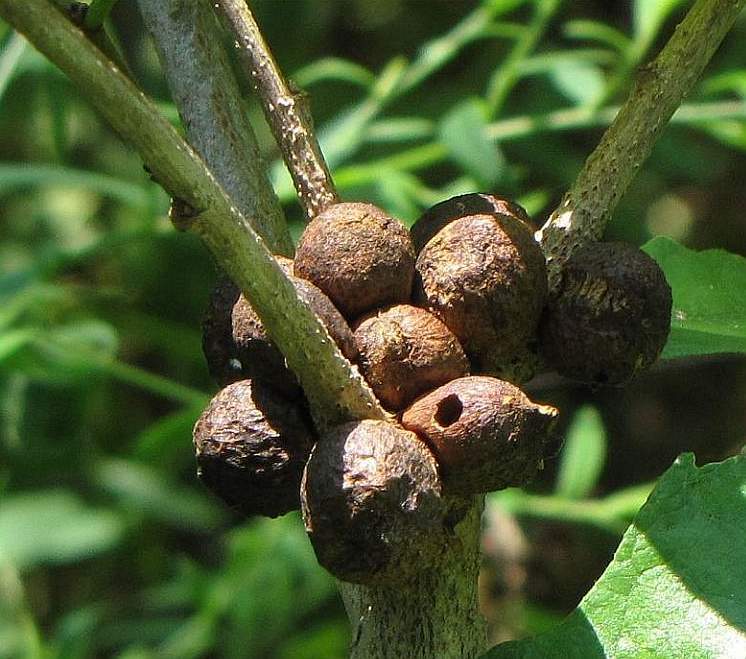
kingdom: Animalia
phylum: Arthropoda
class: Insecta
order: Hymenoptera
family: Cynipidae
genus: Disholcaspis
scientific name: Disholcaspis
